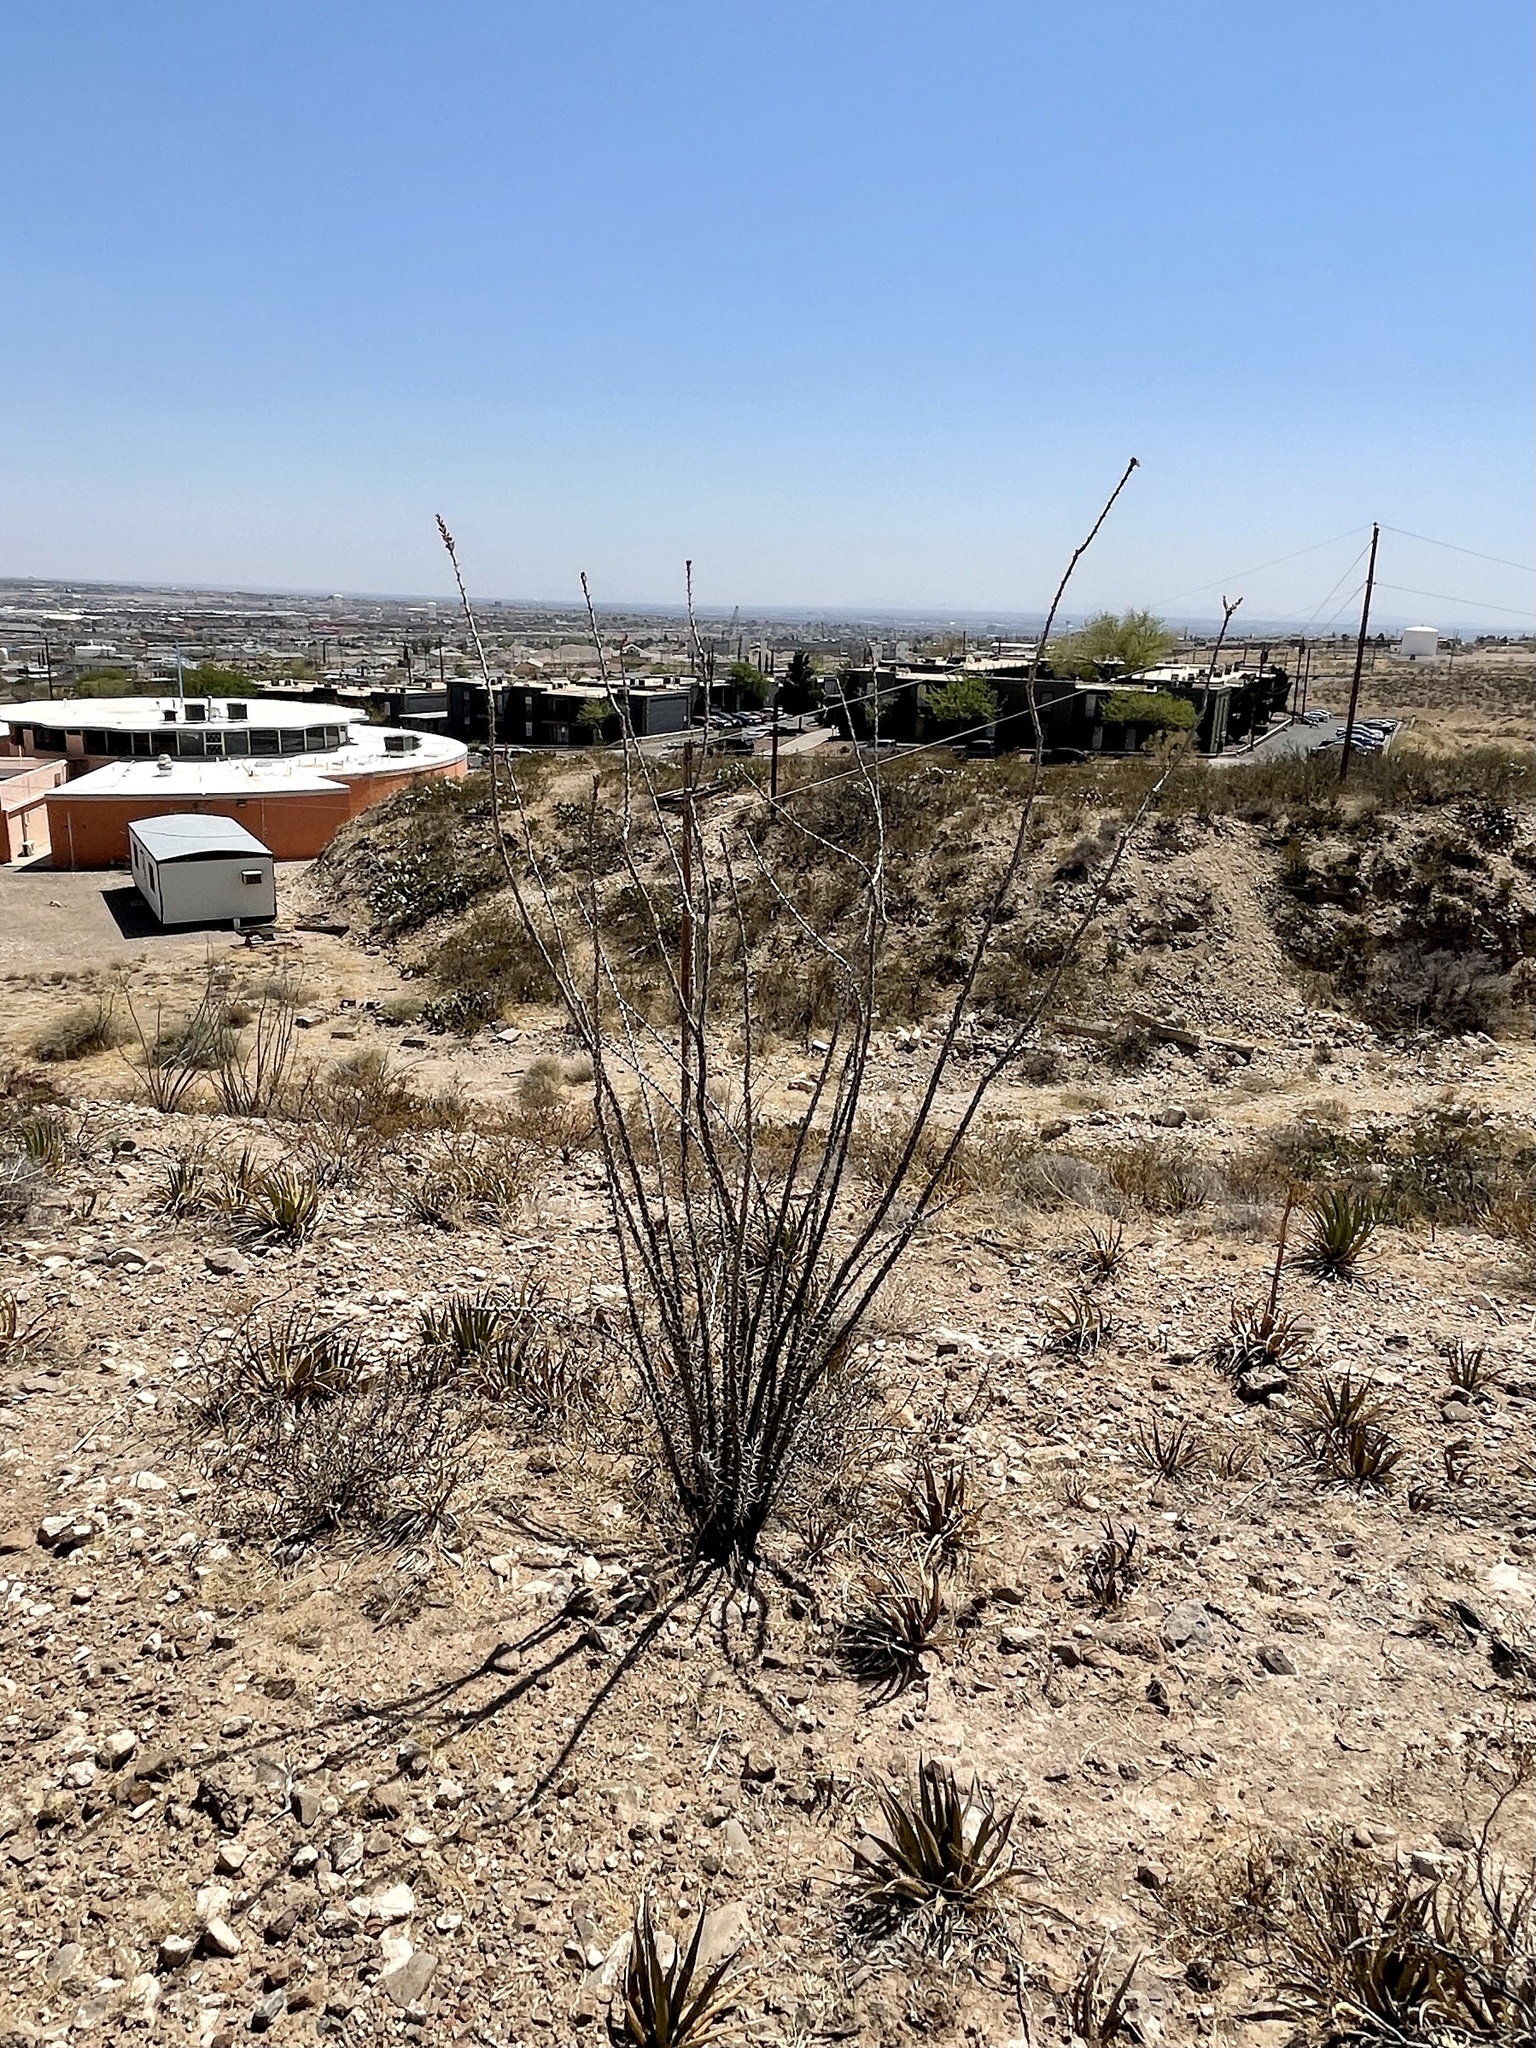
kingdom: Plantae
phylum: Tracheophyta
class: Magnoliopsida
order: Ericales
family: Fouquieriaceae
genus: Fouquieria
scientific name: Fouquieria splendens
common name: Vine-cactus
